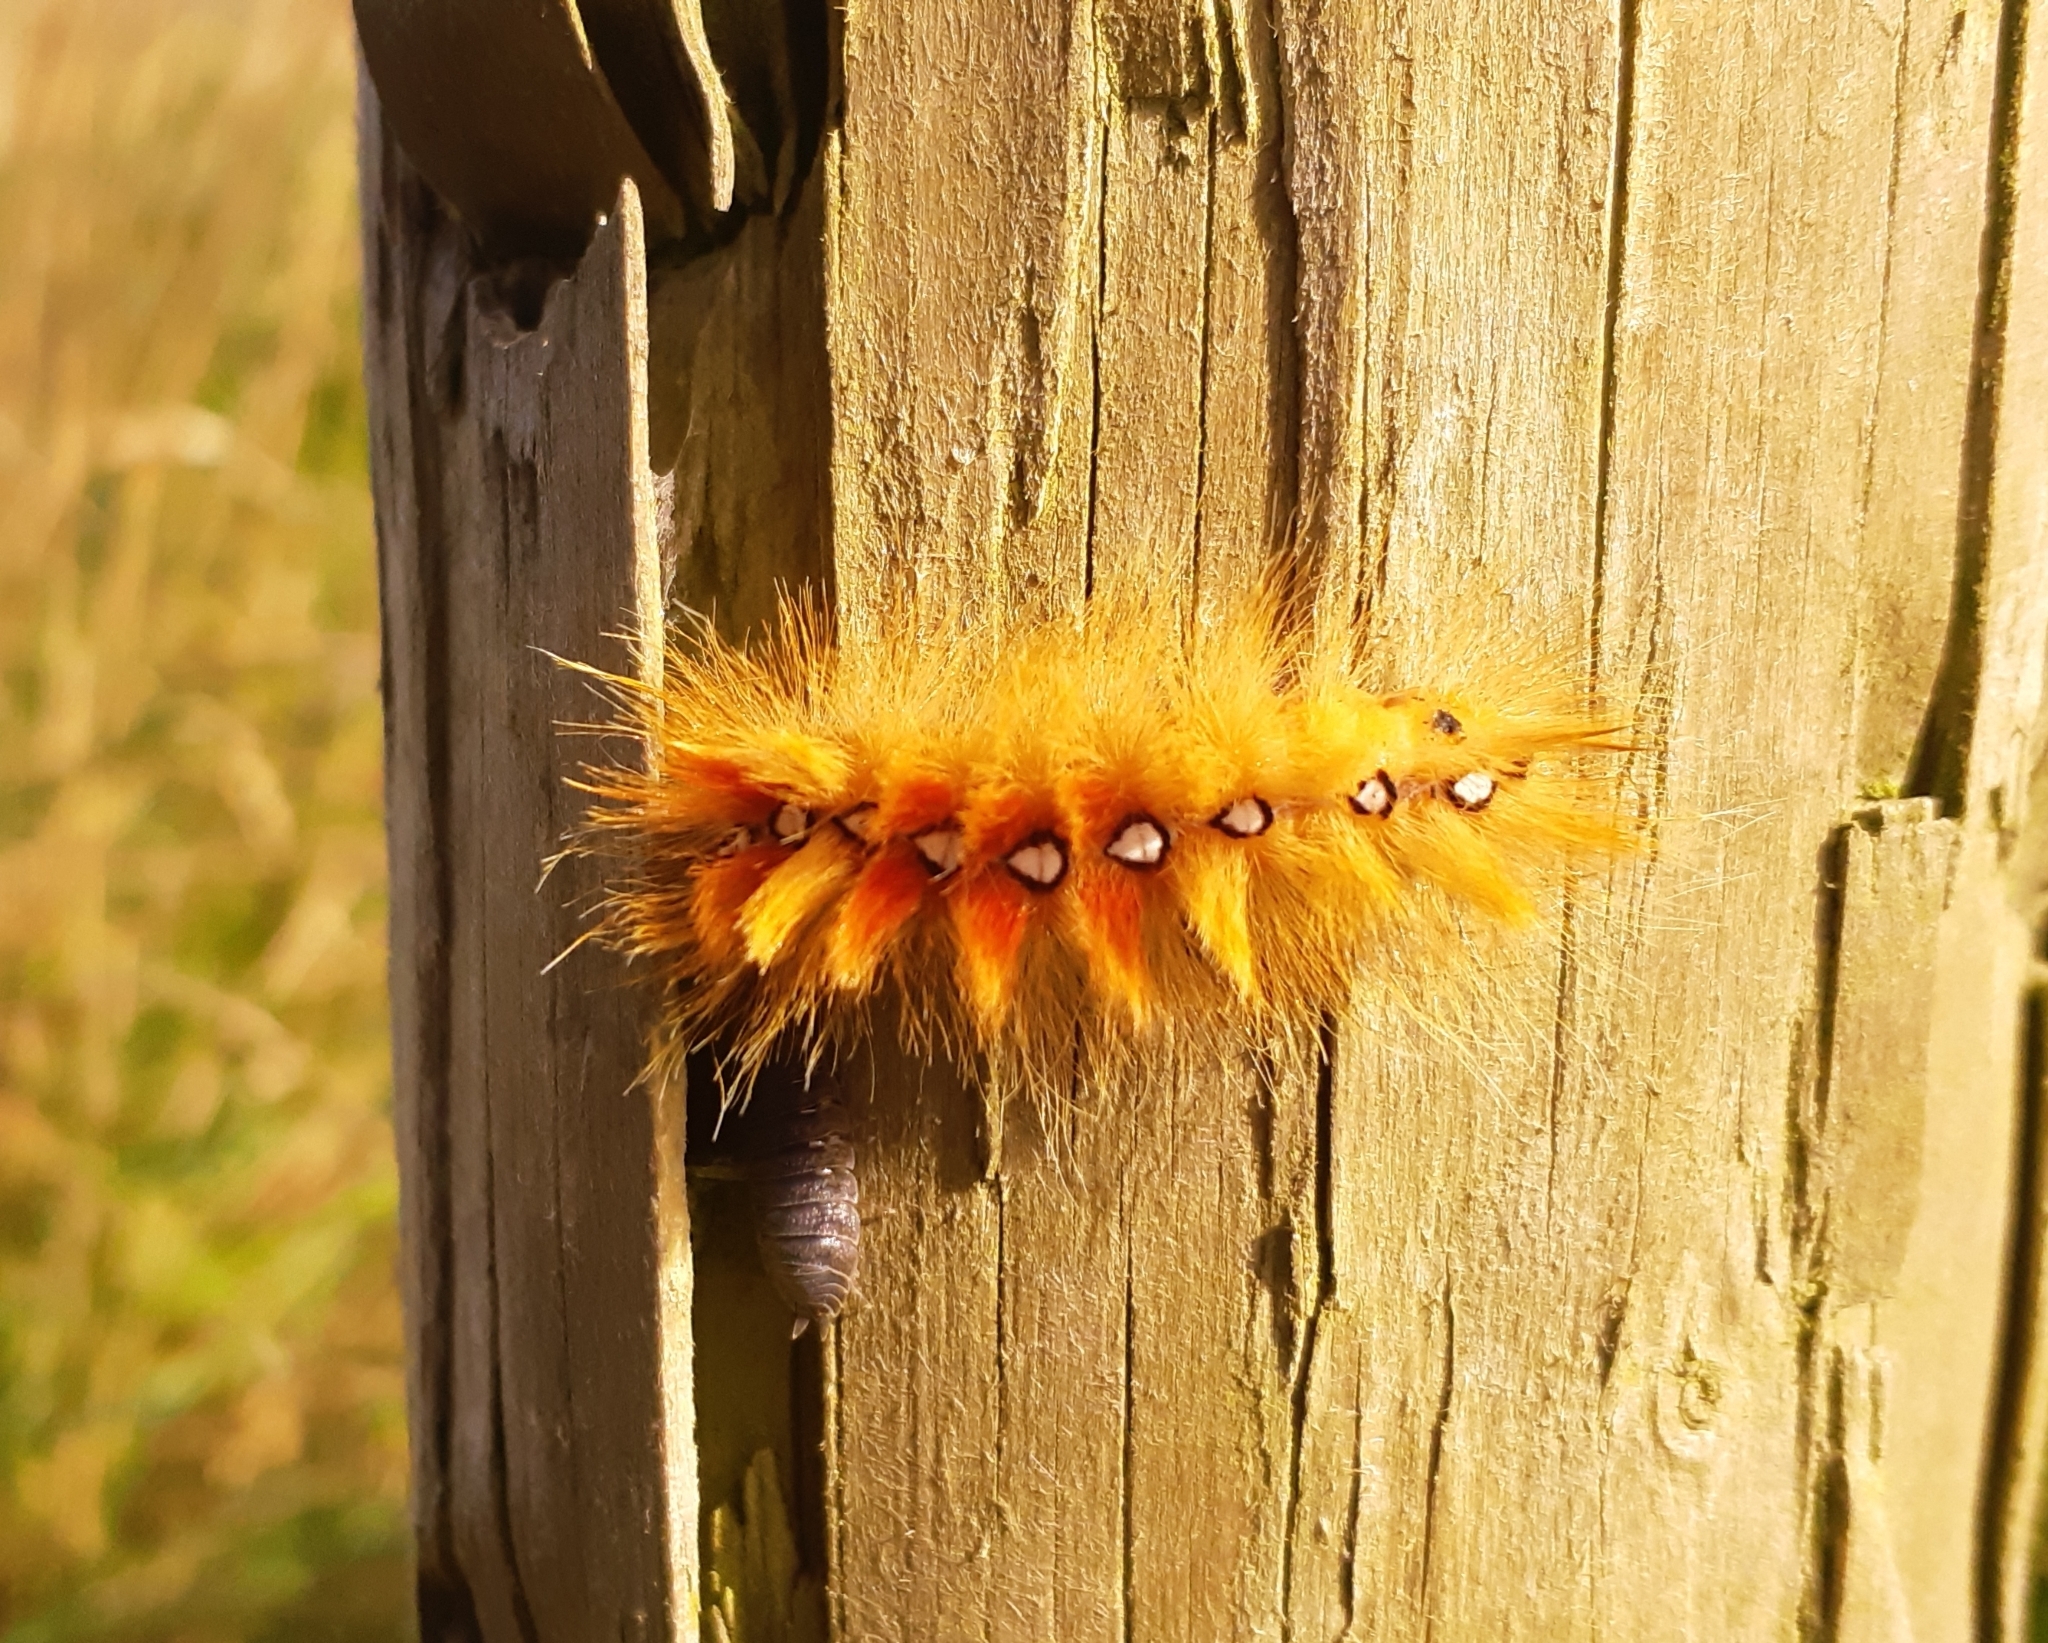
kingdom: Animalia
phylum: Arthropoda
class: Insecta
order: Lepidoptera
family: Noctuidae
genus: Acronicta
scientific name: Acronicta aceris
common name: Sycamore
